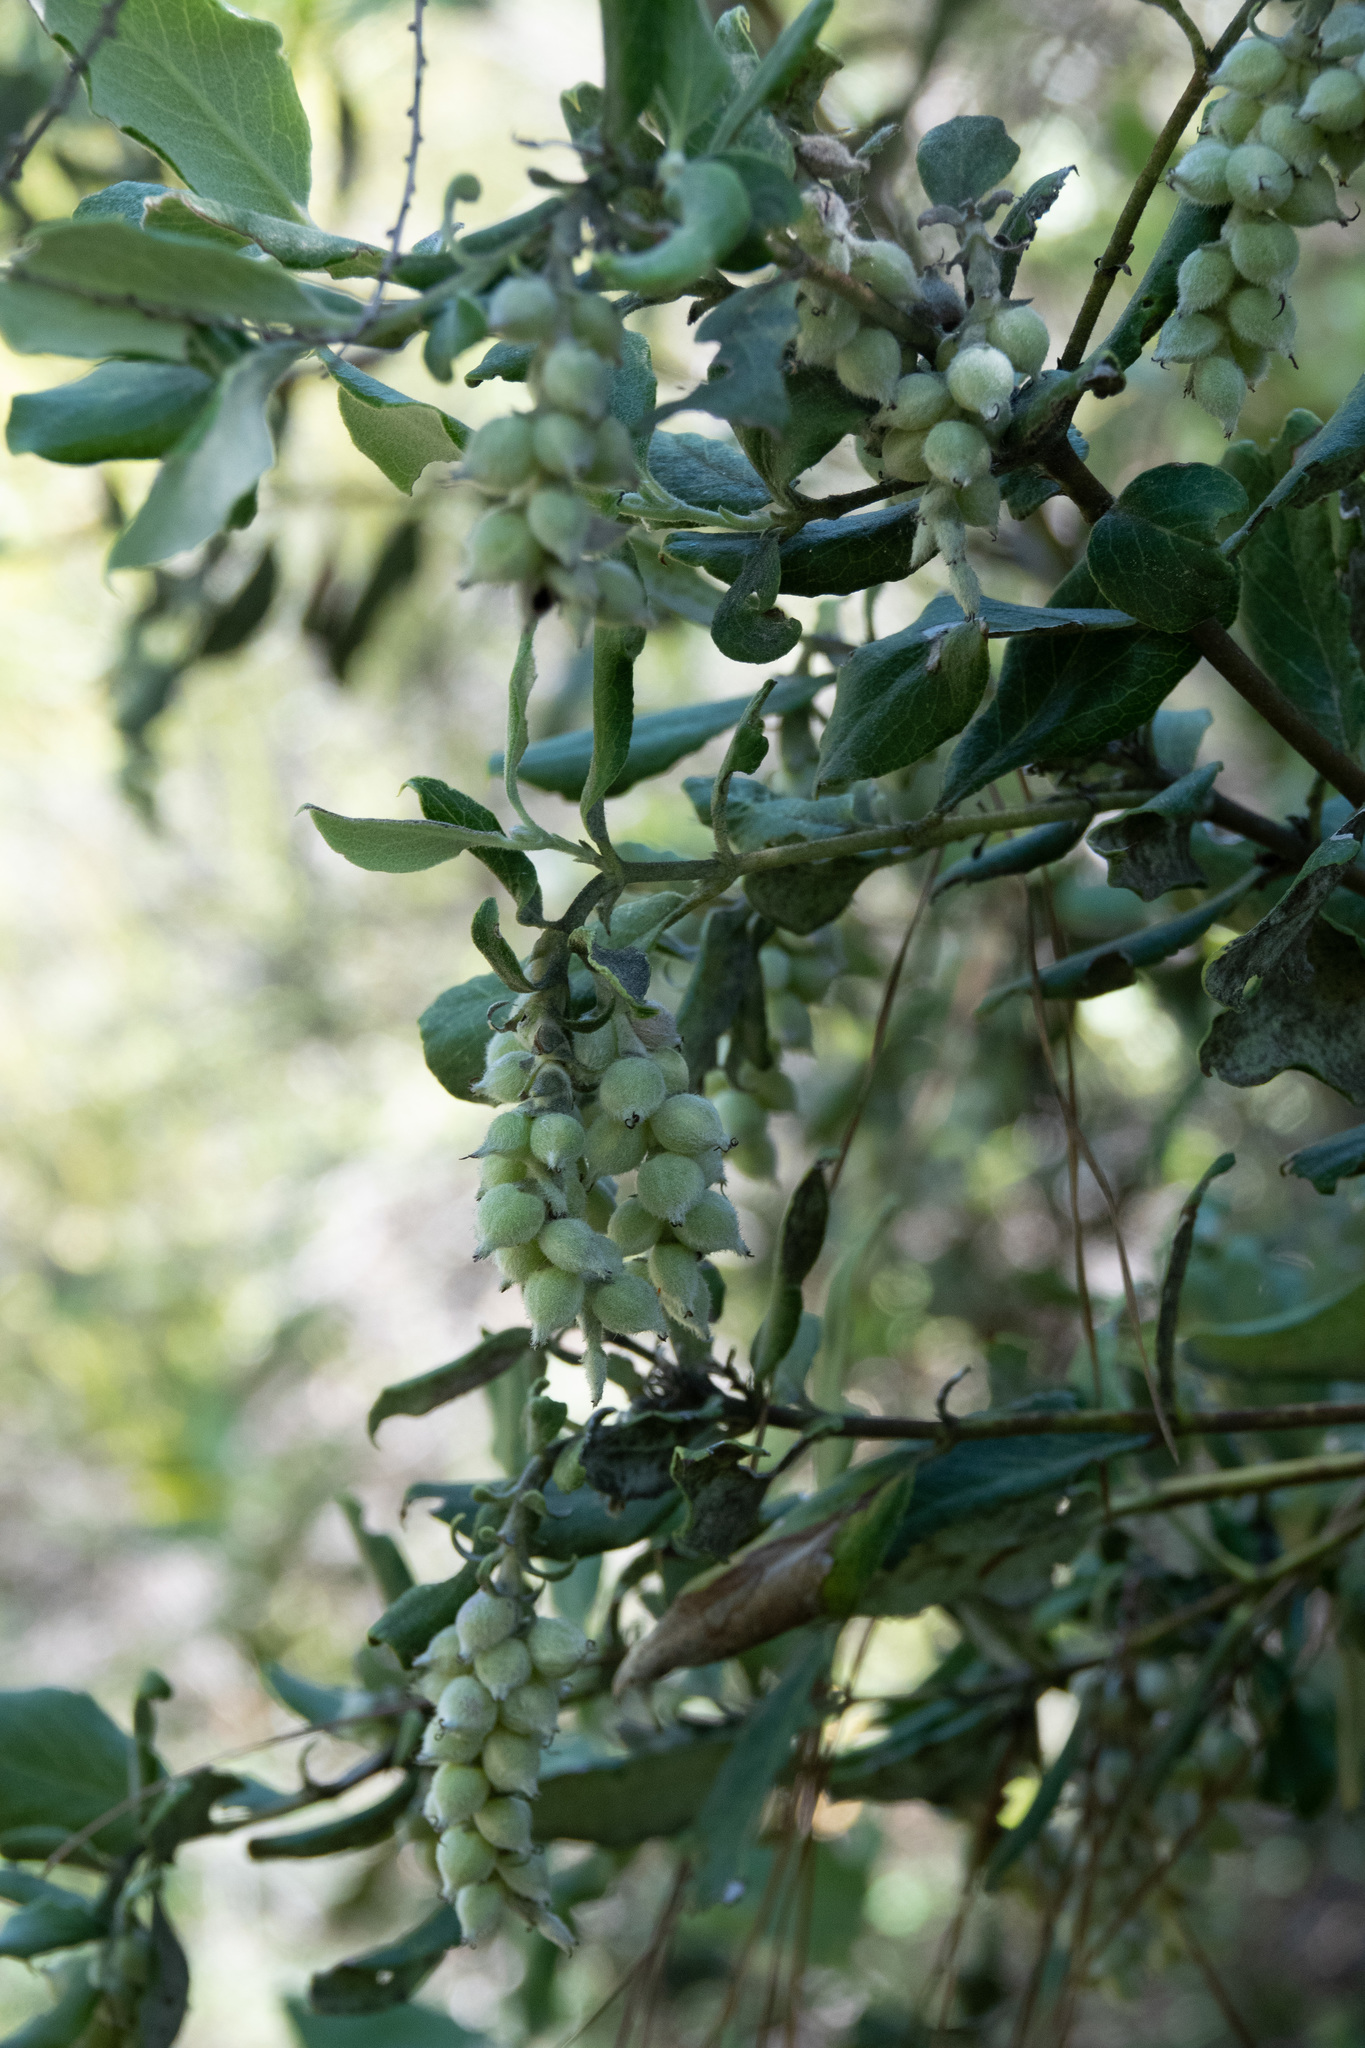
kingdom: Plantae
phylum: Tracheophyta
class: Magnoliopsida
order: Garryales
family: Garryaceae
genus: Garrya
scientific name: Garrya elliptica
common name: Silk-tassel
